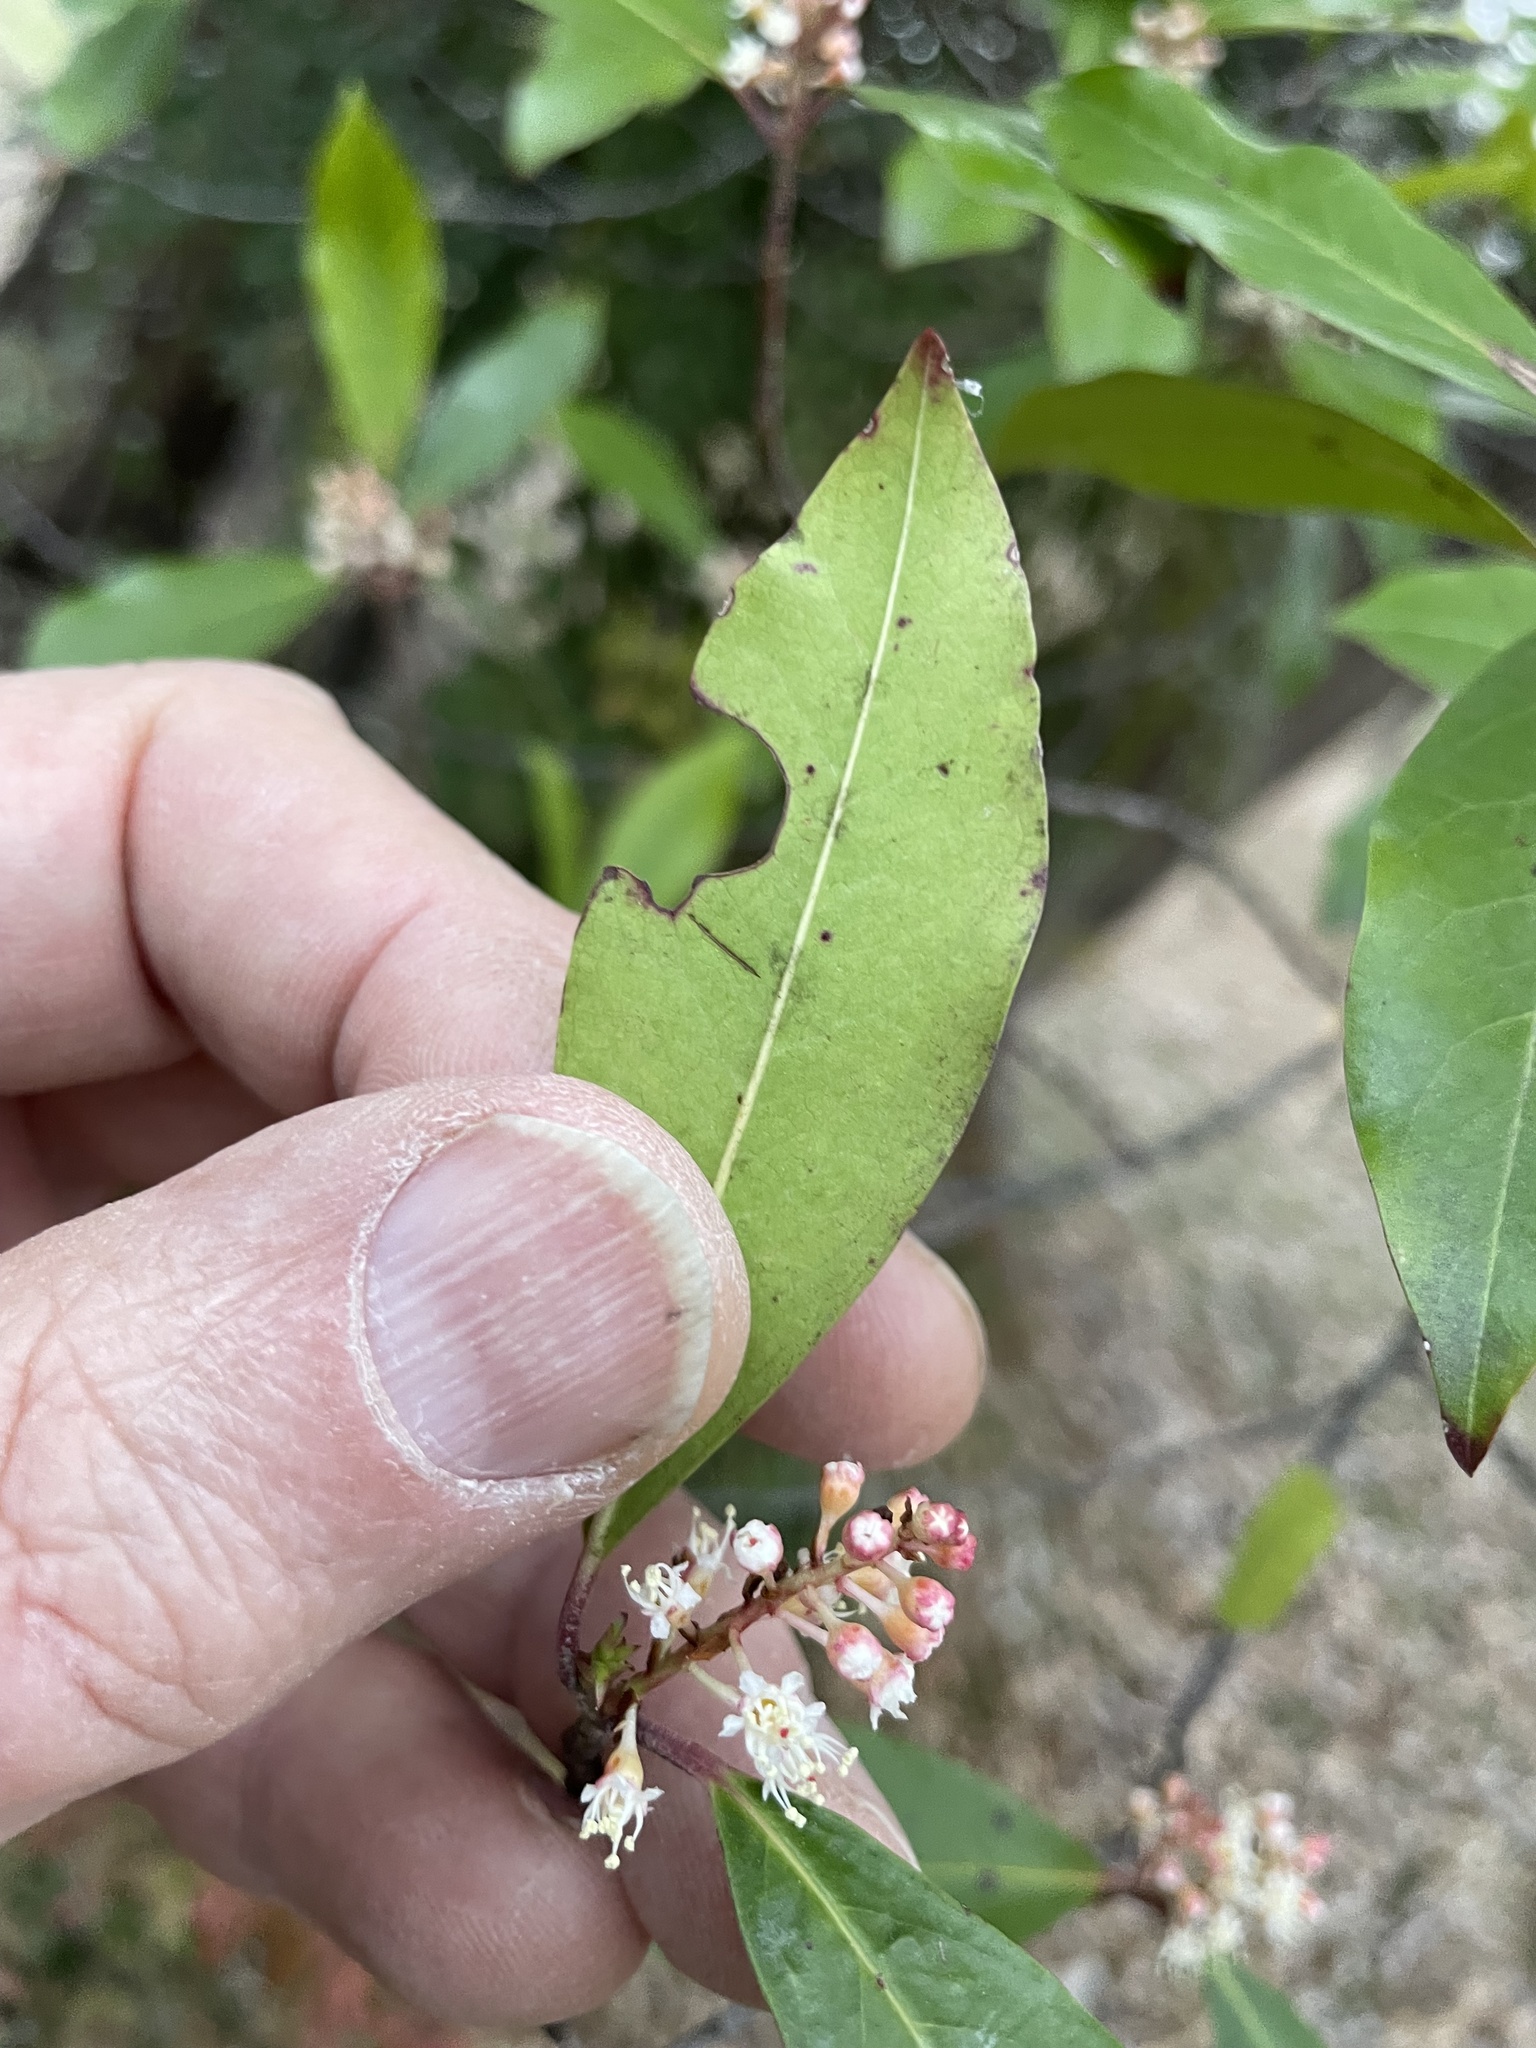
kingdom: Plantae
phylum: Tracheophyta
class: Magnoliopsida
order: Rosales
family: Rosaceae
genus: Prunus
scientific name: Prunus caroliniana
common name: Carolina laurel cherry
